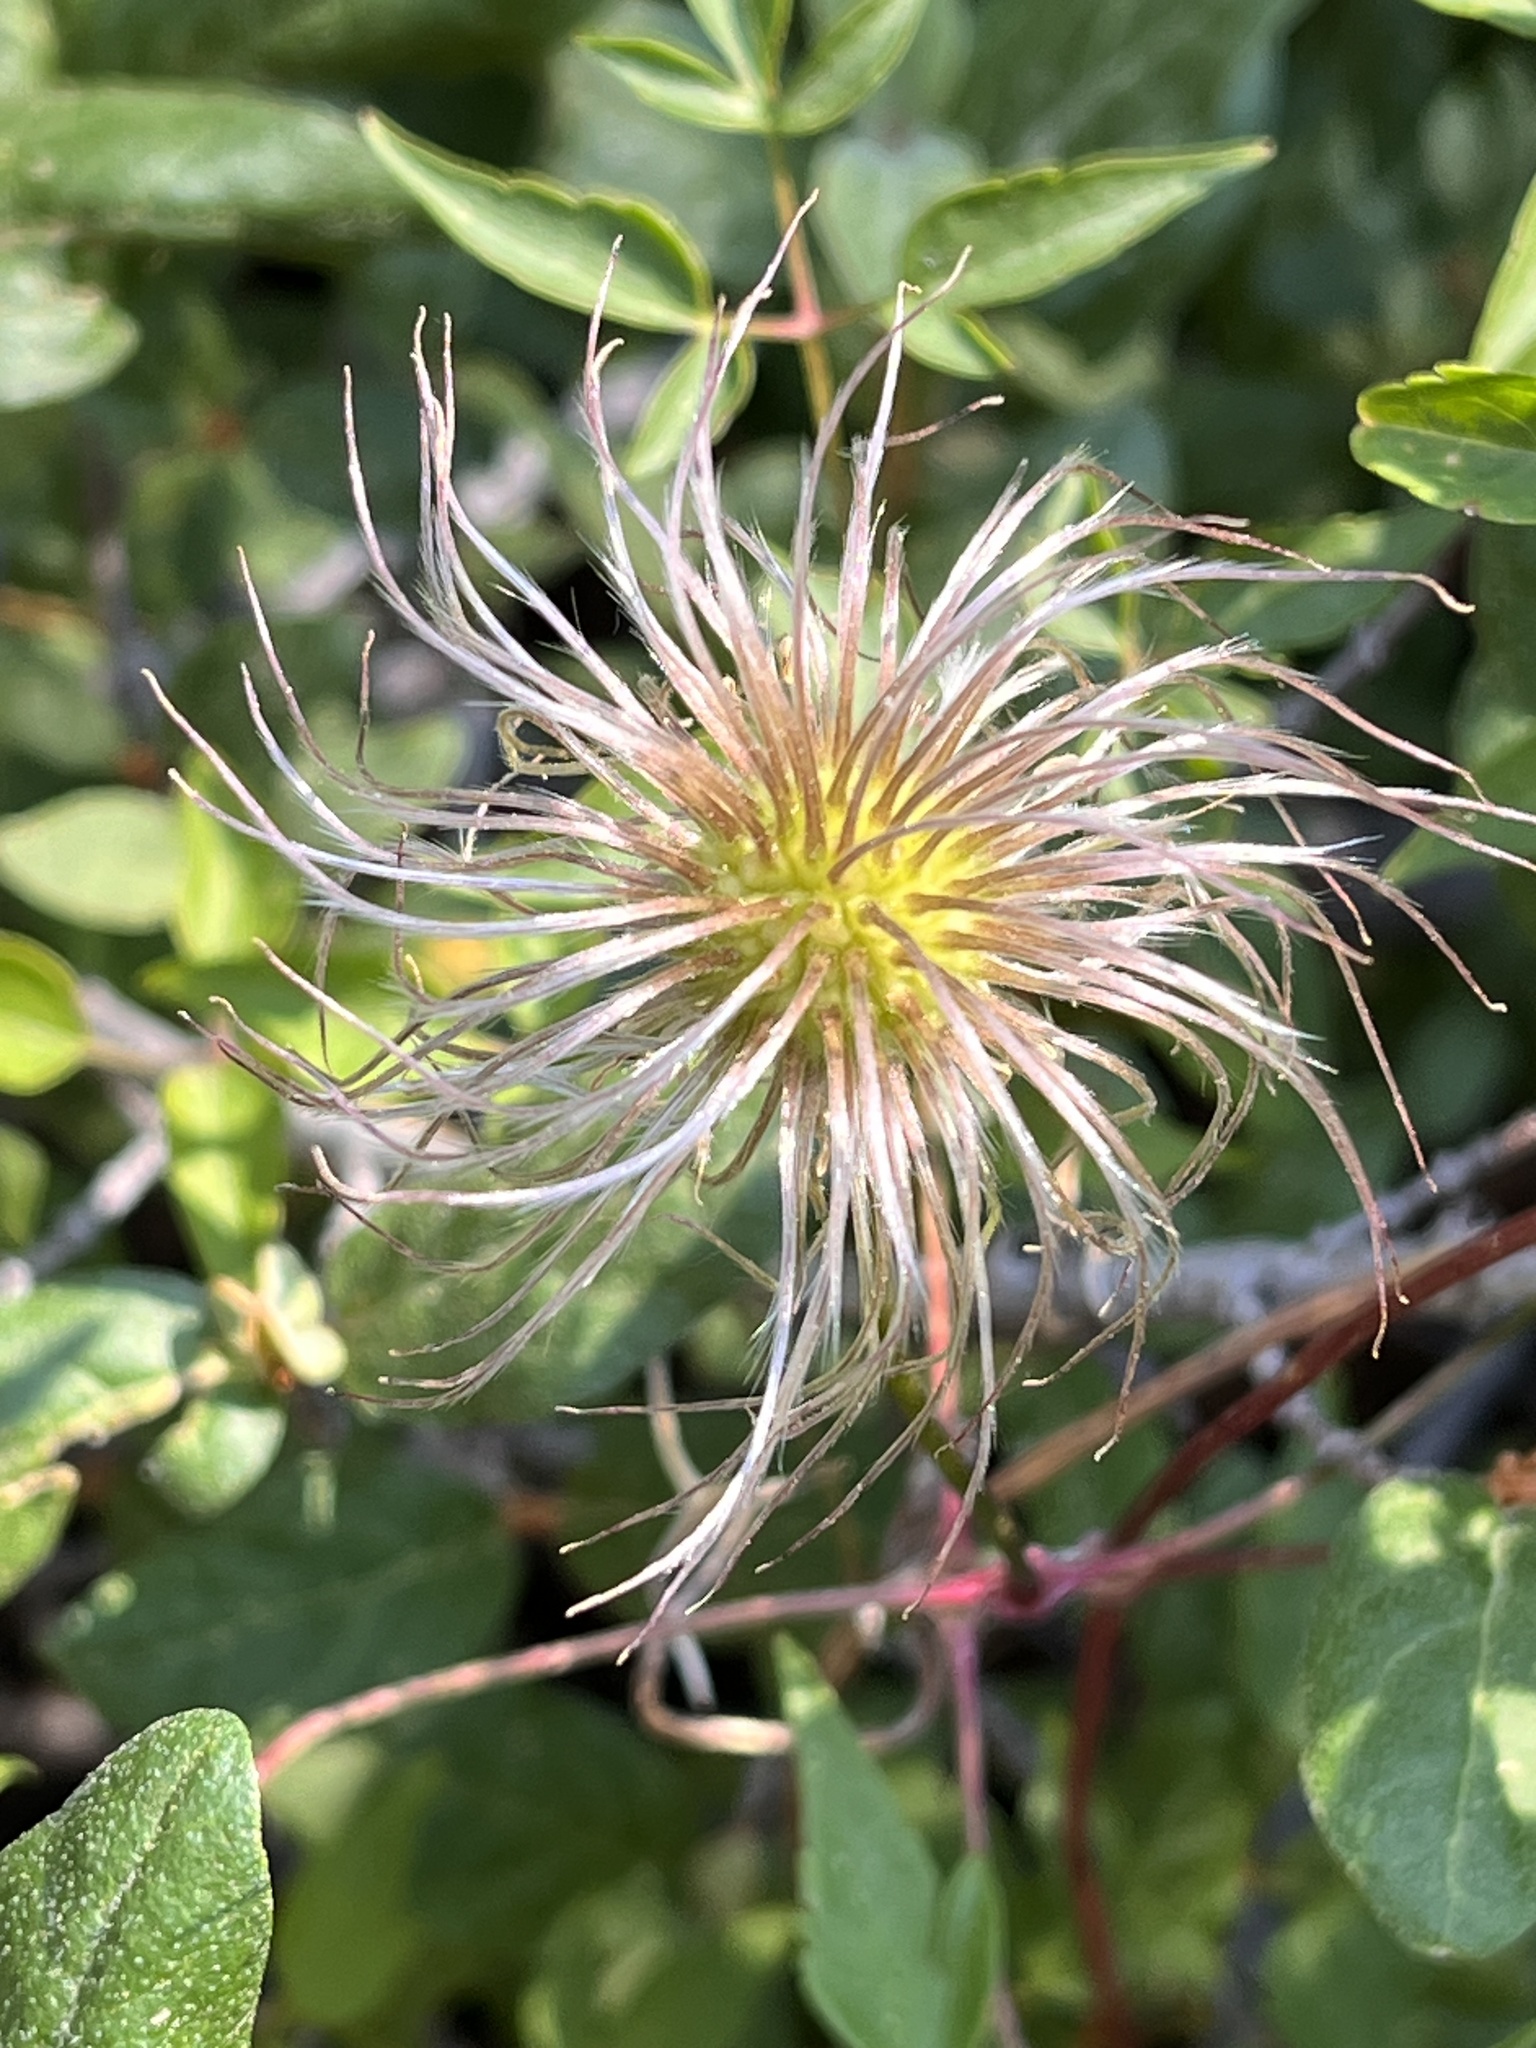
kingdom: Plantae
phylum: Tracheophyta
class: Magnoliopsida
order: Ranunculales
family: Ranunculaceae
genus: Pulsatilla
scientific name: Pulsatilla nuttalliana
